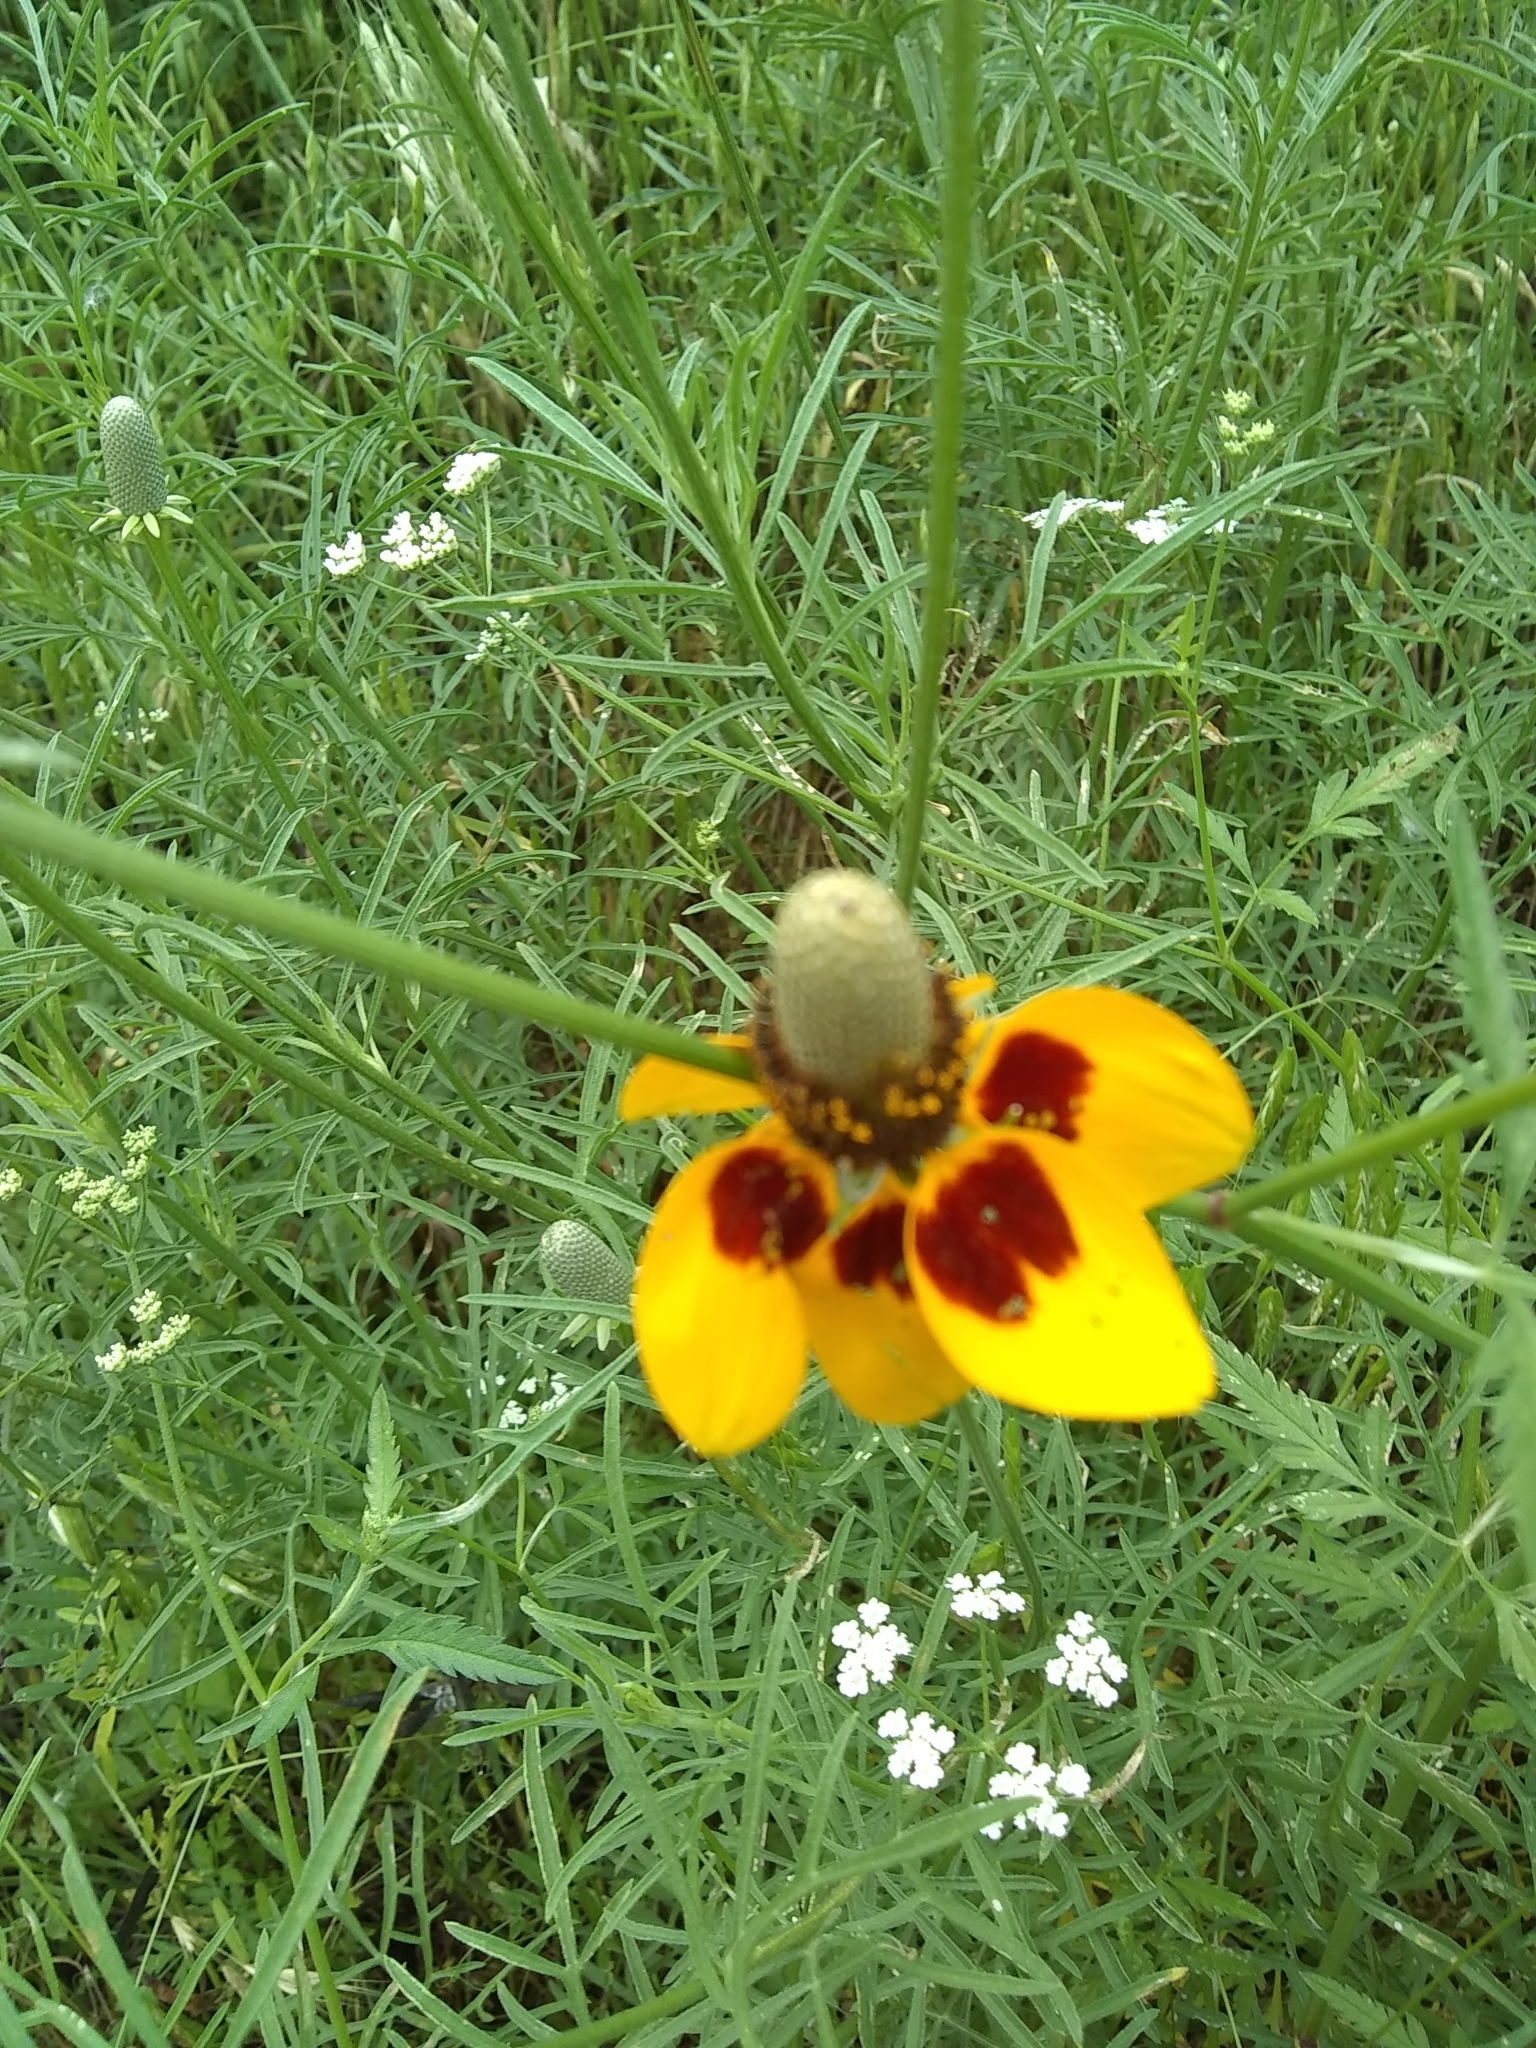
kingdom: Plantae
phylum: Tracheophyta
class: Magnoliopsida
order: Asterales
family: Asteraceae
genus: Ratibida
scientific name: Ratibida columnifera
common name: Prairie coneflower
